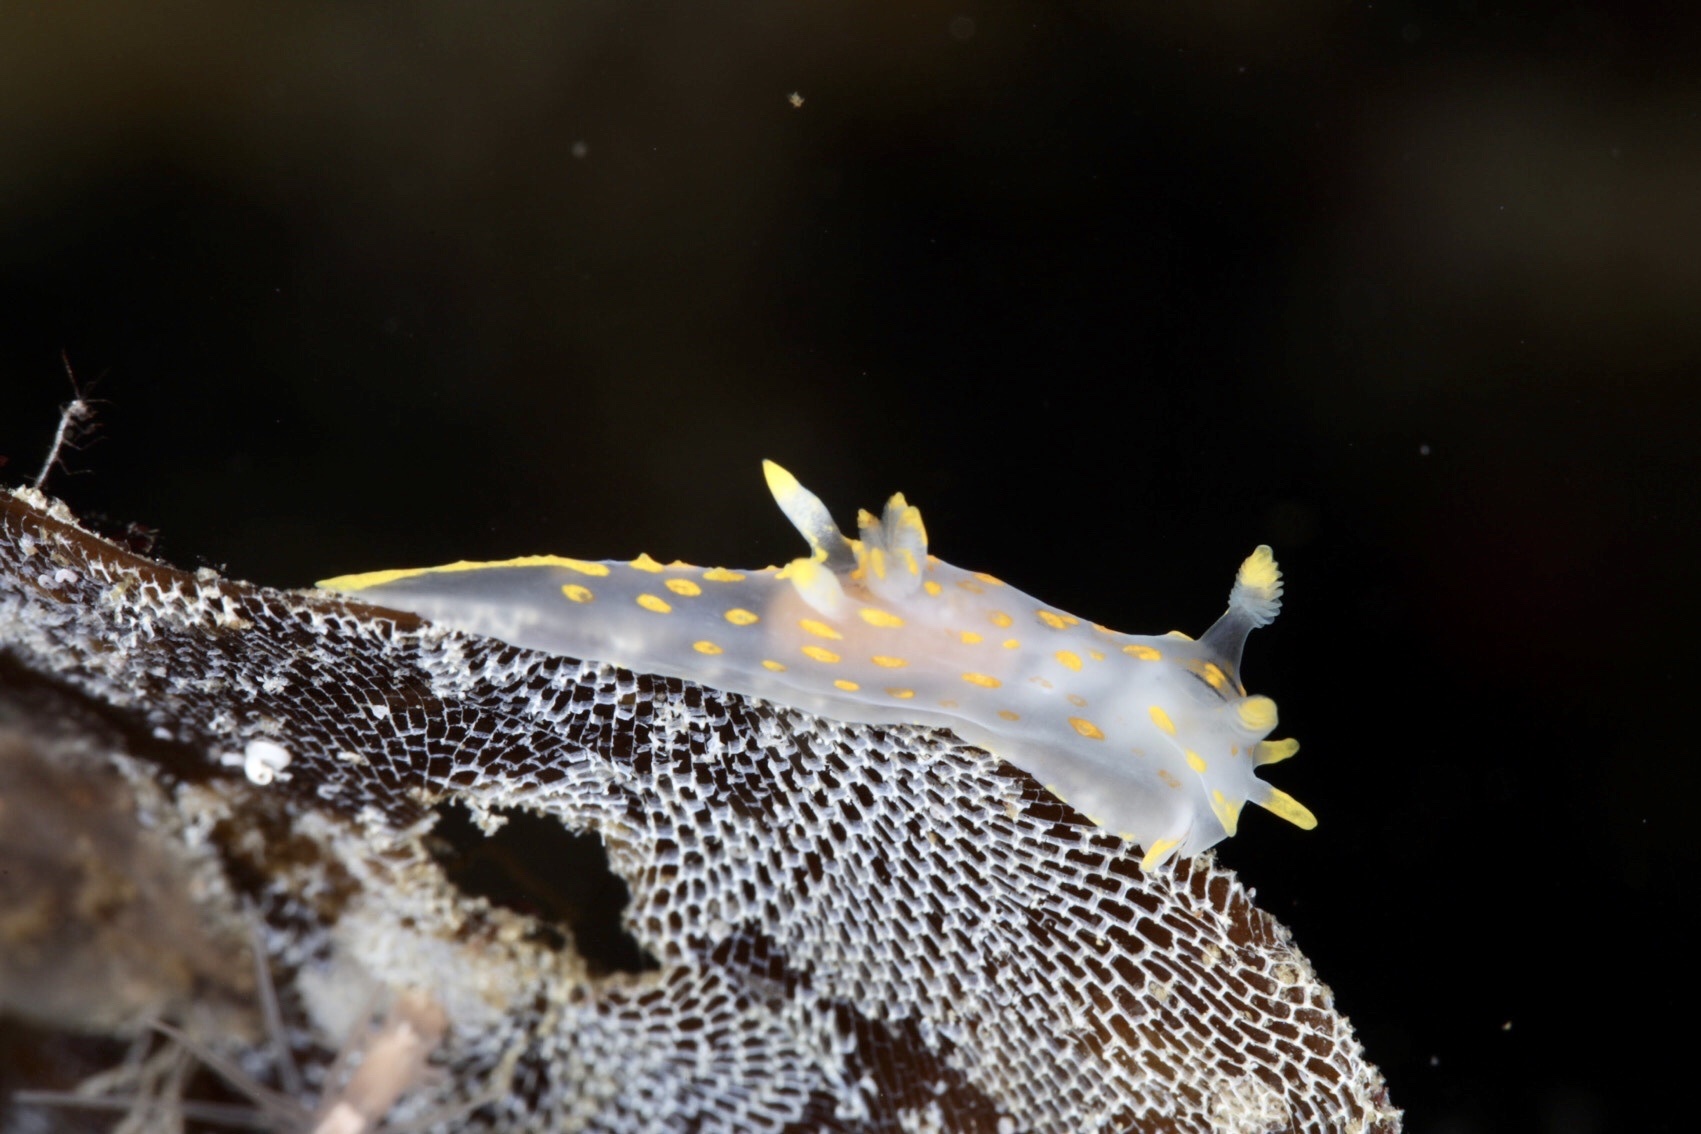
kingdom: Animalia
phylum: Mollusca
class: Gastropoda
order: Nudibranchia
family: Polyceridae
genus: Polycera
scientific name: Polycera quadrilineata
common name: Four-striped polycera
